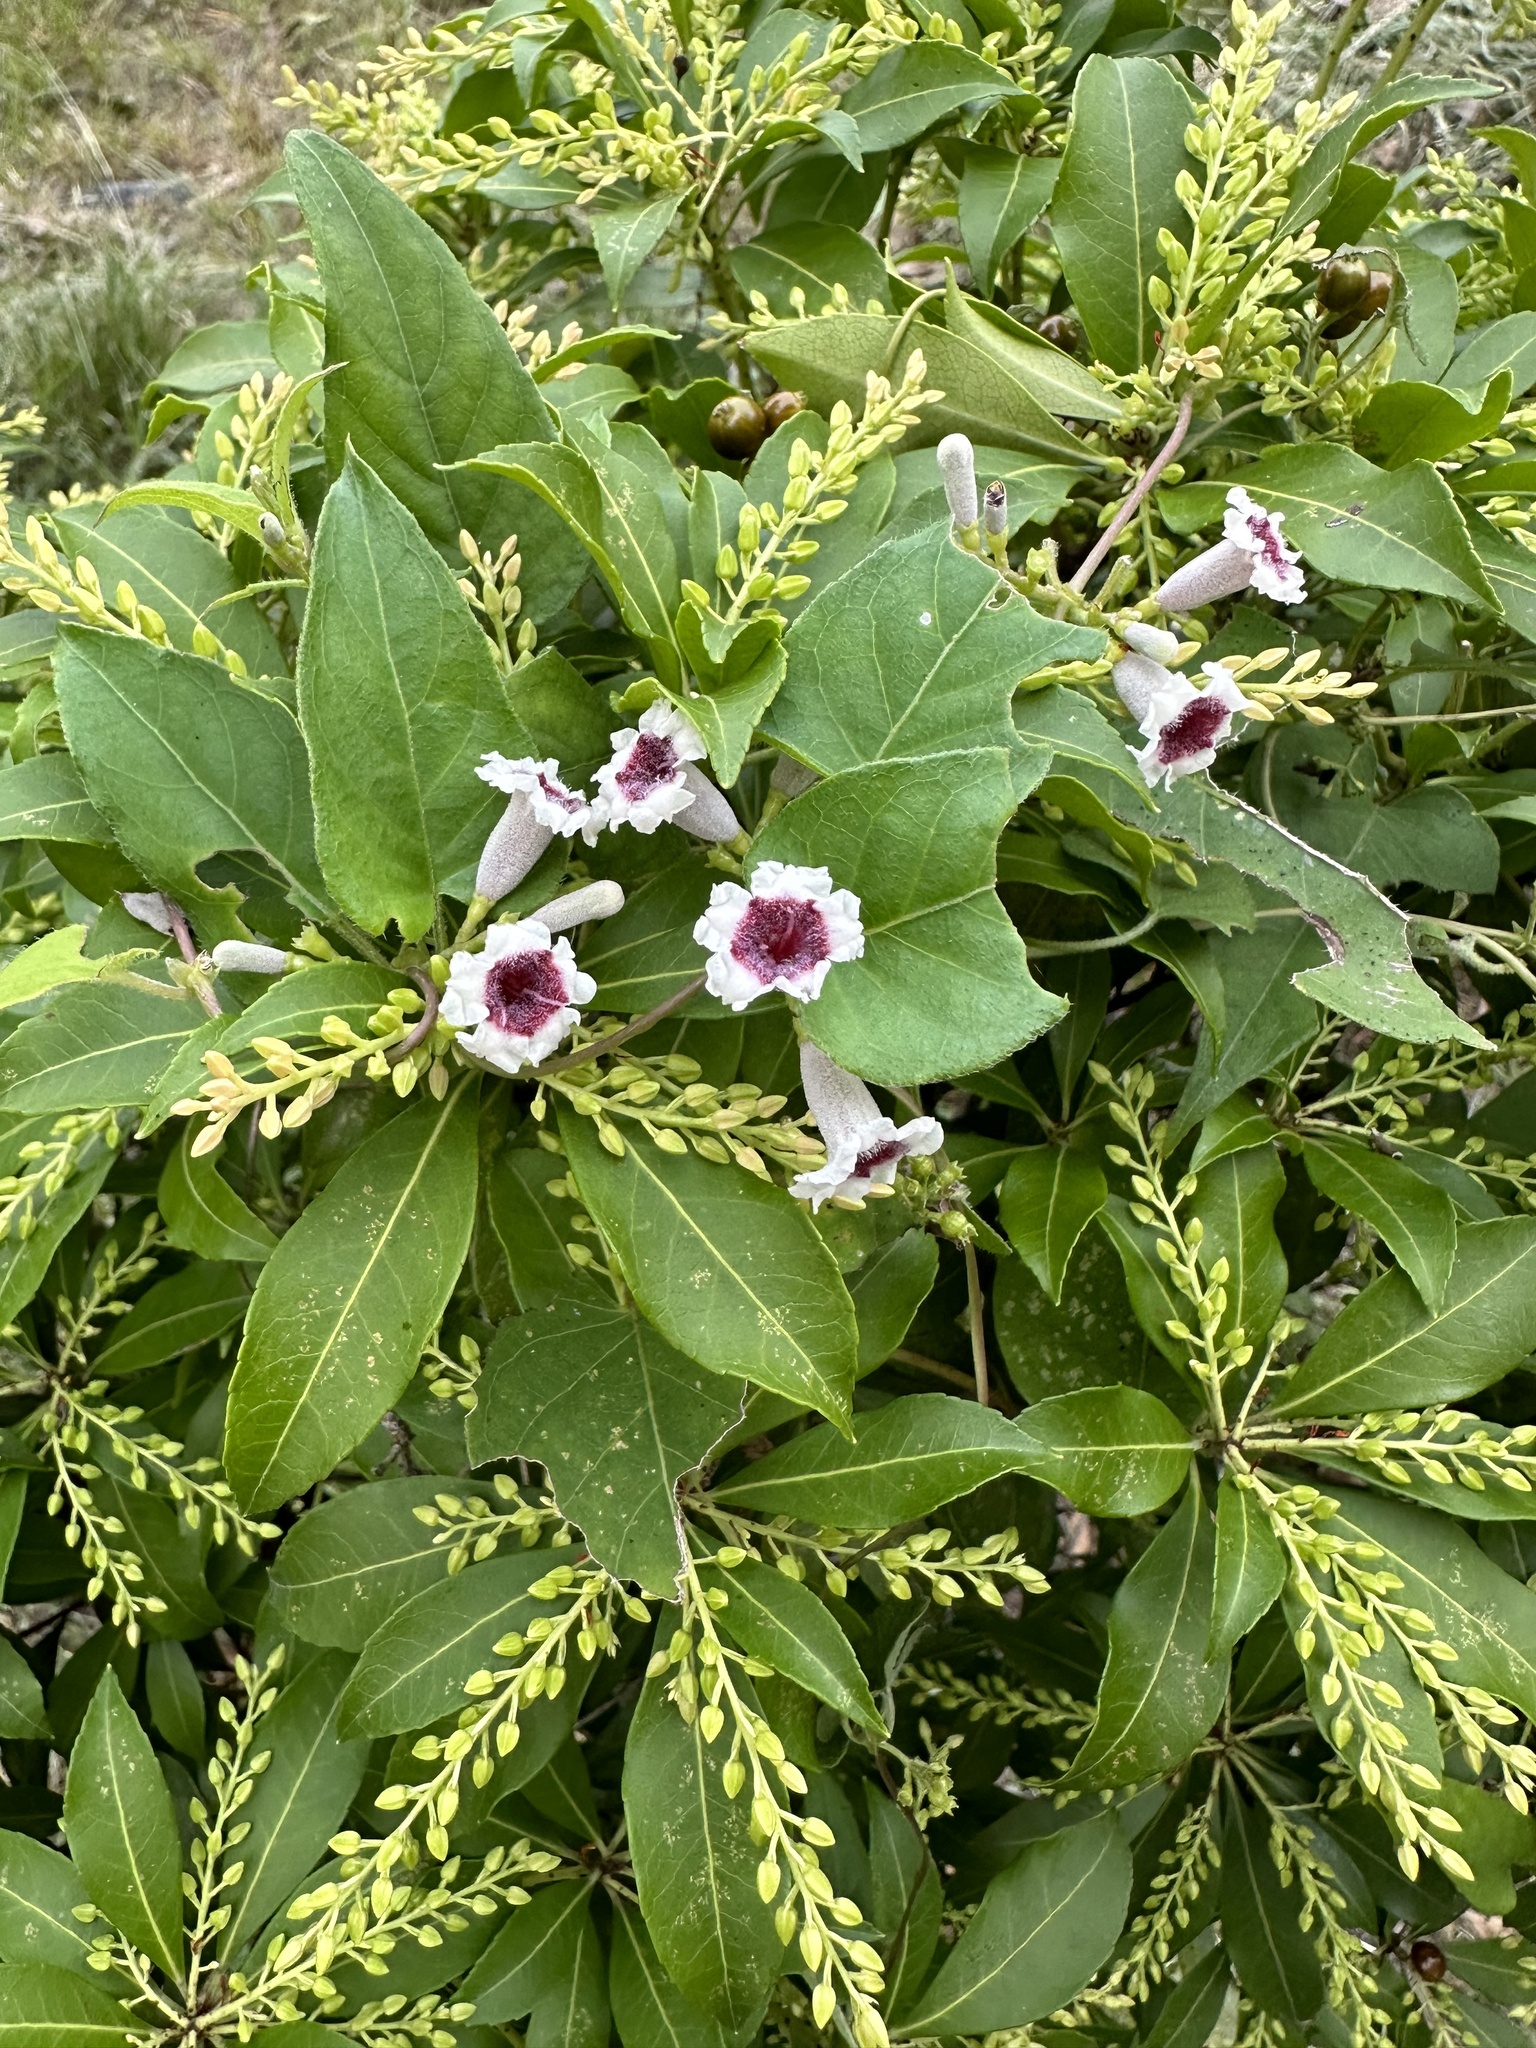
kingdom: Plantae
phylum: Tracheophyta
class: Magnoliopsida
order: Gentianales
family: Rubiaceae
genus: Paederia
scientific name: Paederia foetida
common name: Stinkvine
